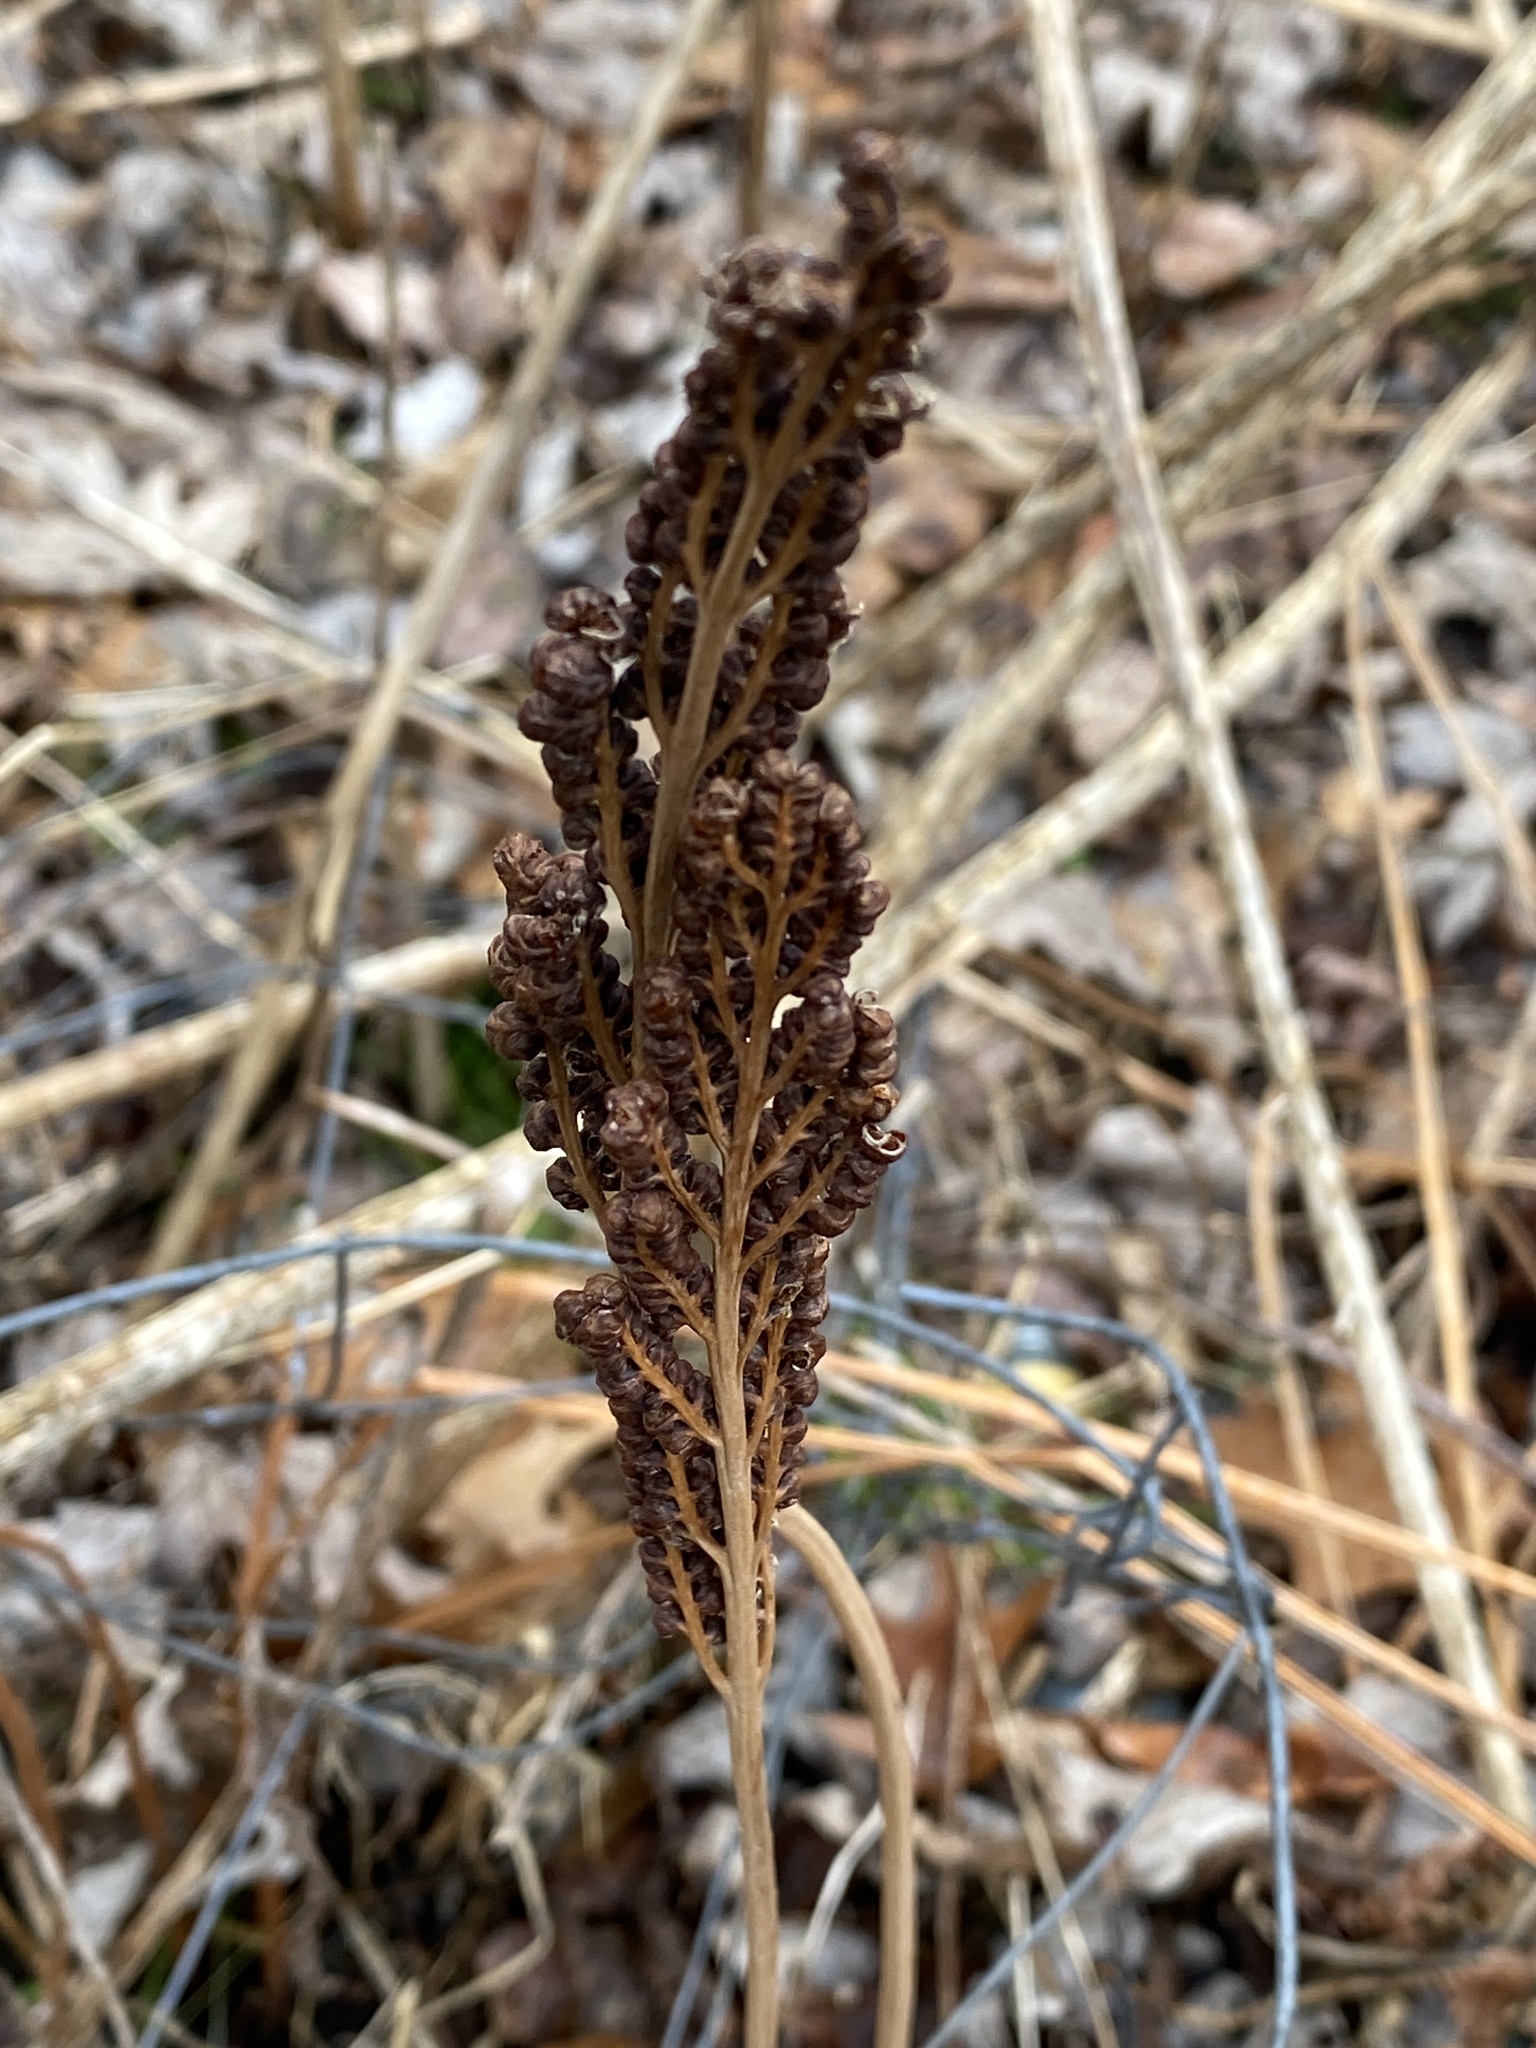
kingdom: Plantae
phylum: Tracheophyta
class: Polypodiopsida
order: Polypodiales
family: Onocleaceae
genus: Onoclea
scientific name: Onoclea sensibilis
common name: Sensitive fern
